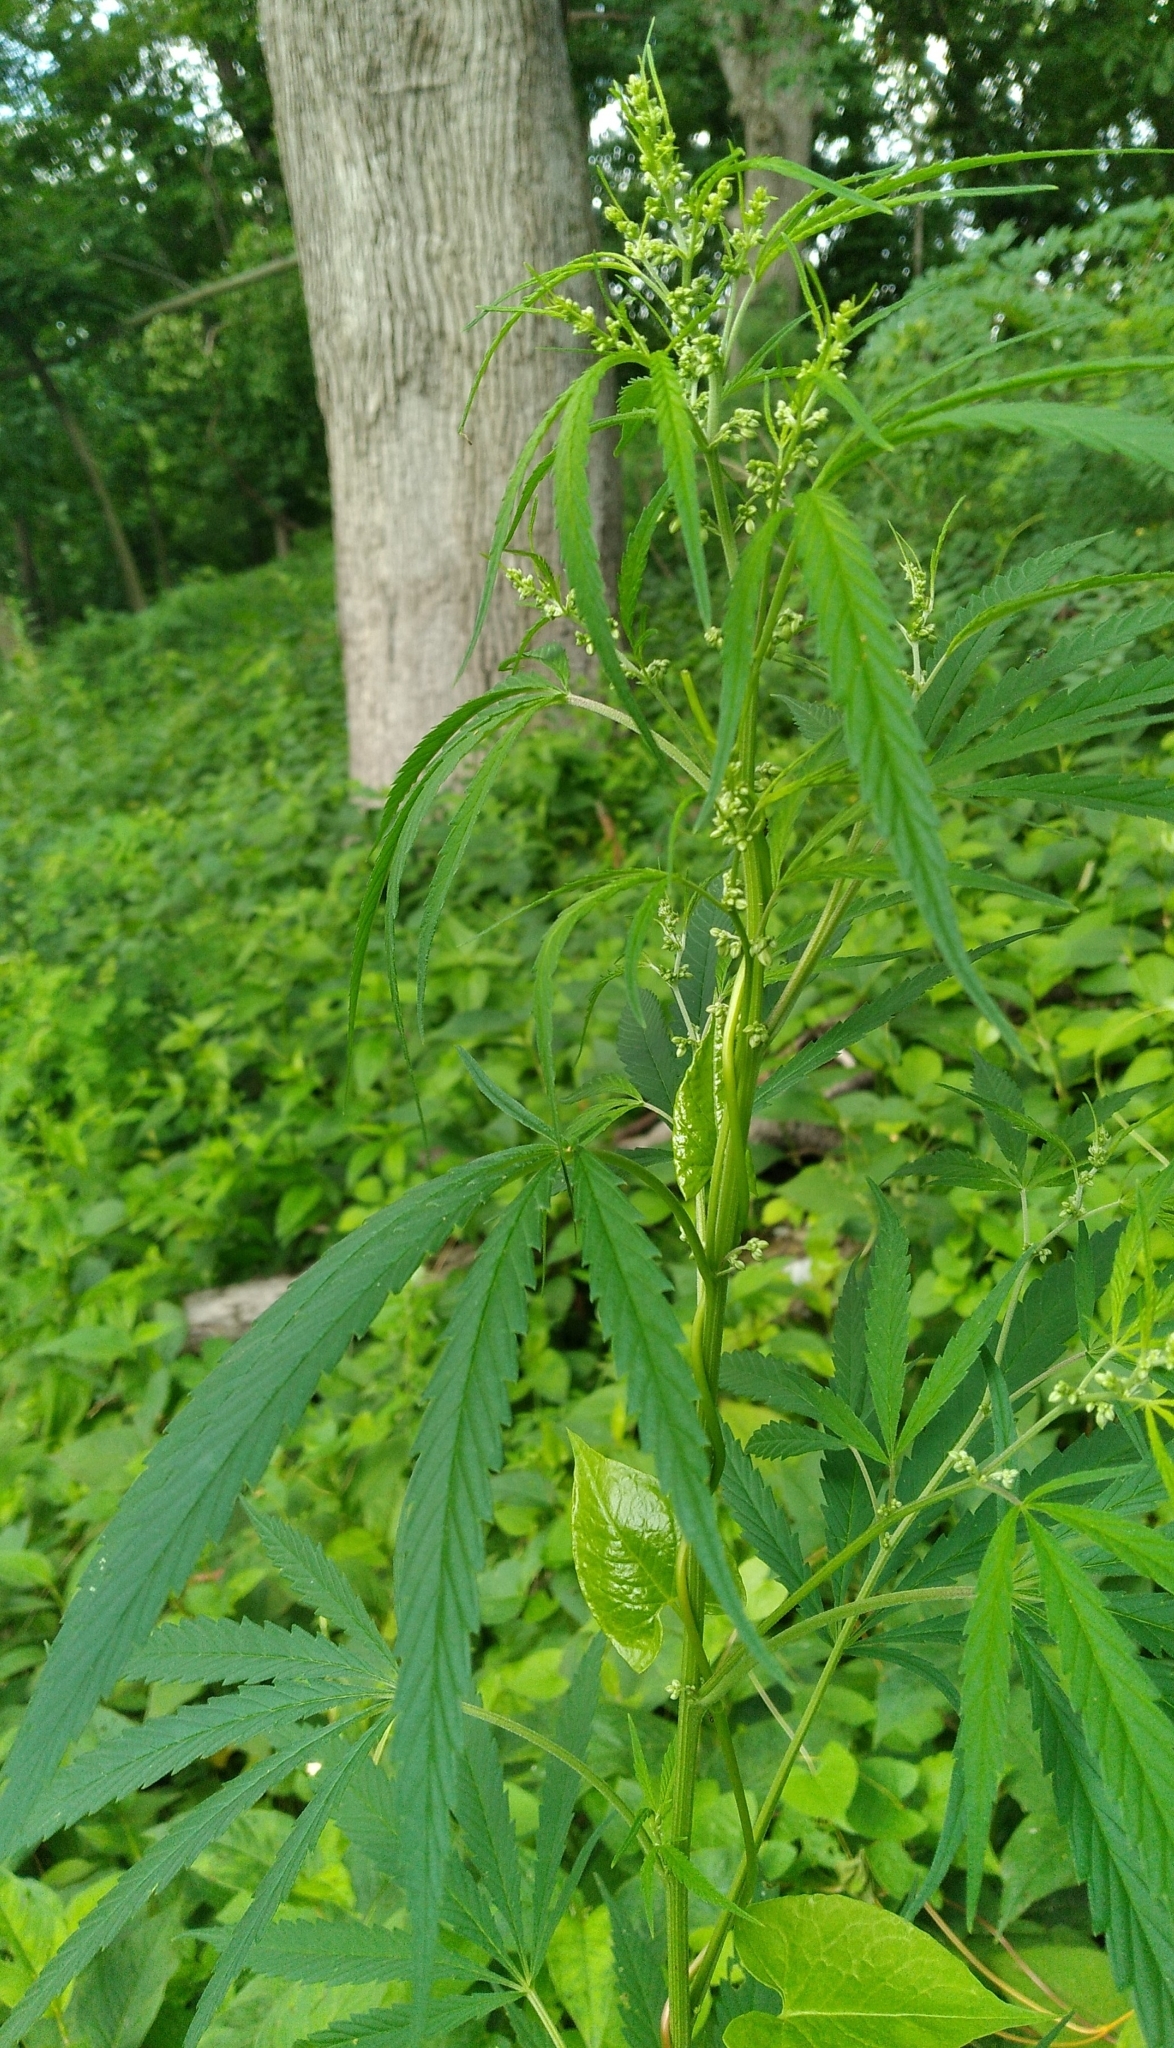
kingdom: Plantae
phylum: Tracheophyta
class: Magnoliopsida
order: Rosales
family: Cannabaceae
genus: Cannabis
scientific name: Cannabis sativa
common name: Hemp
